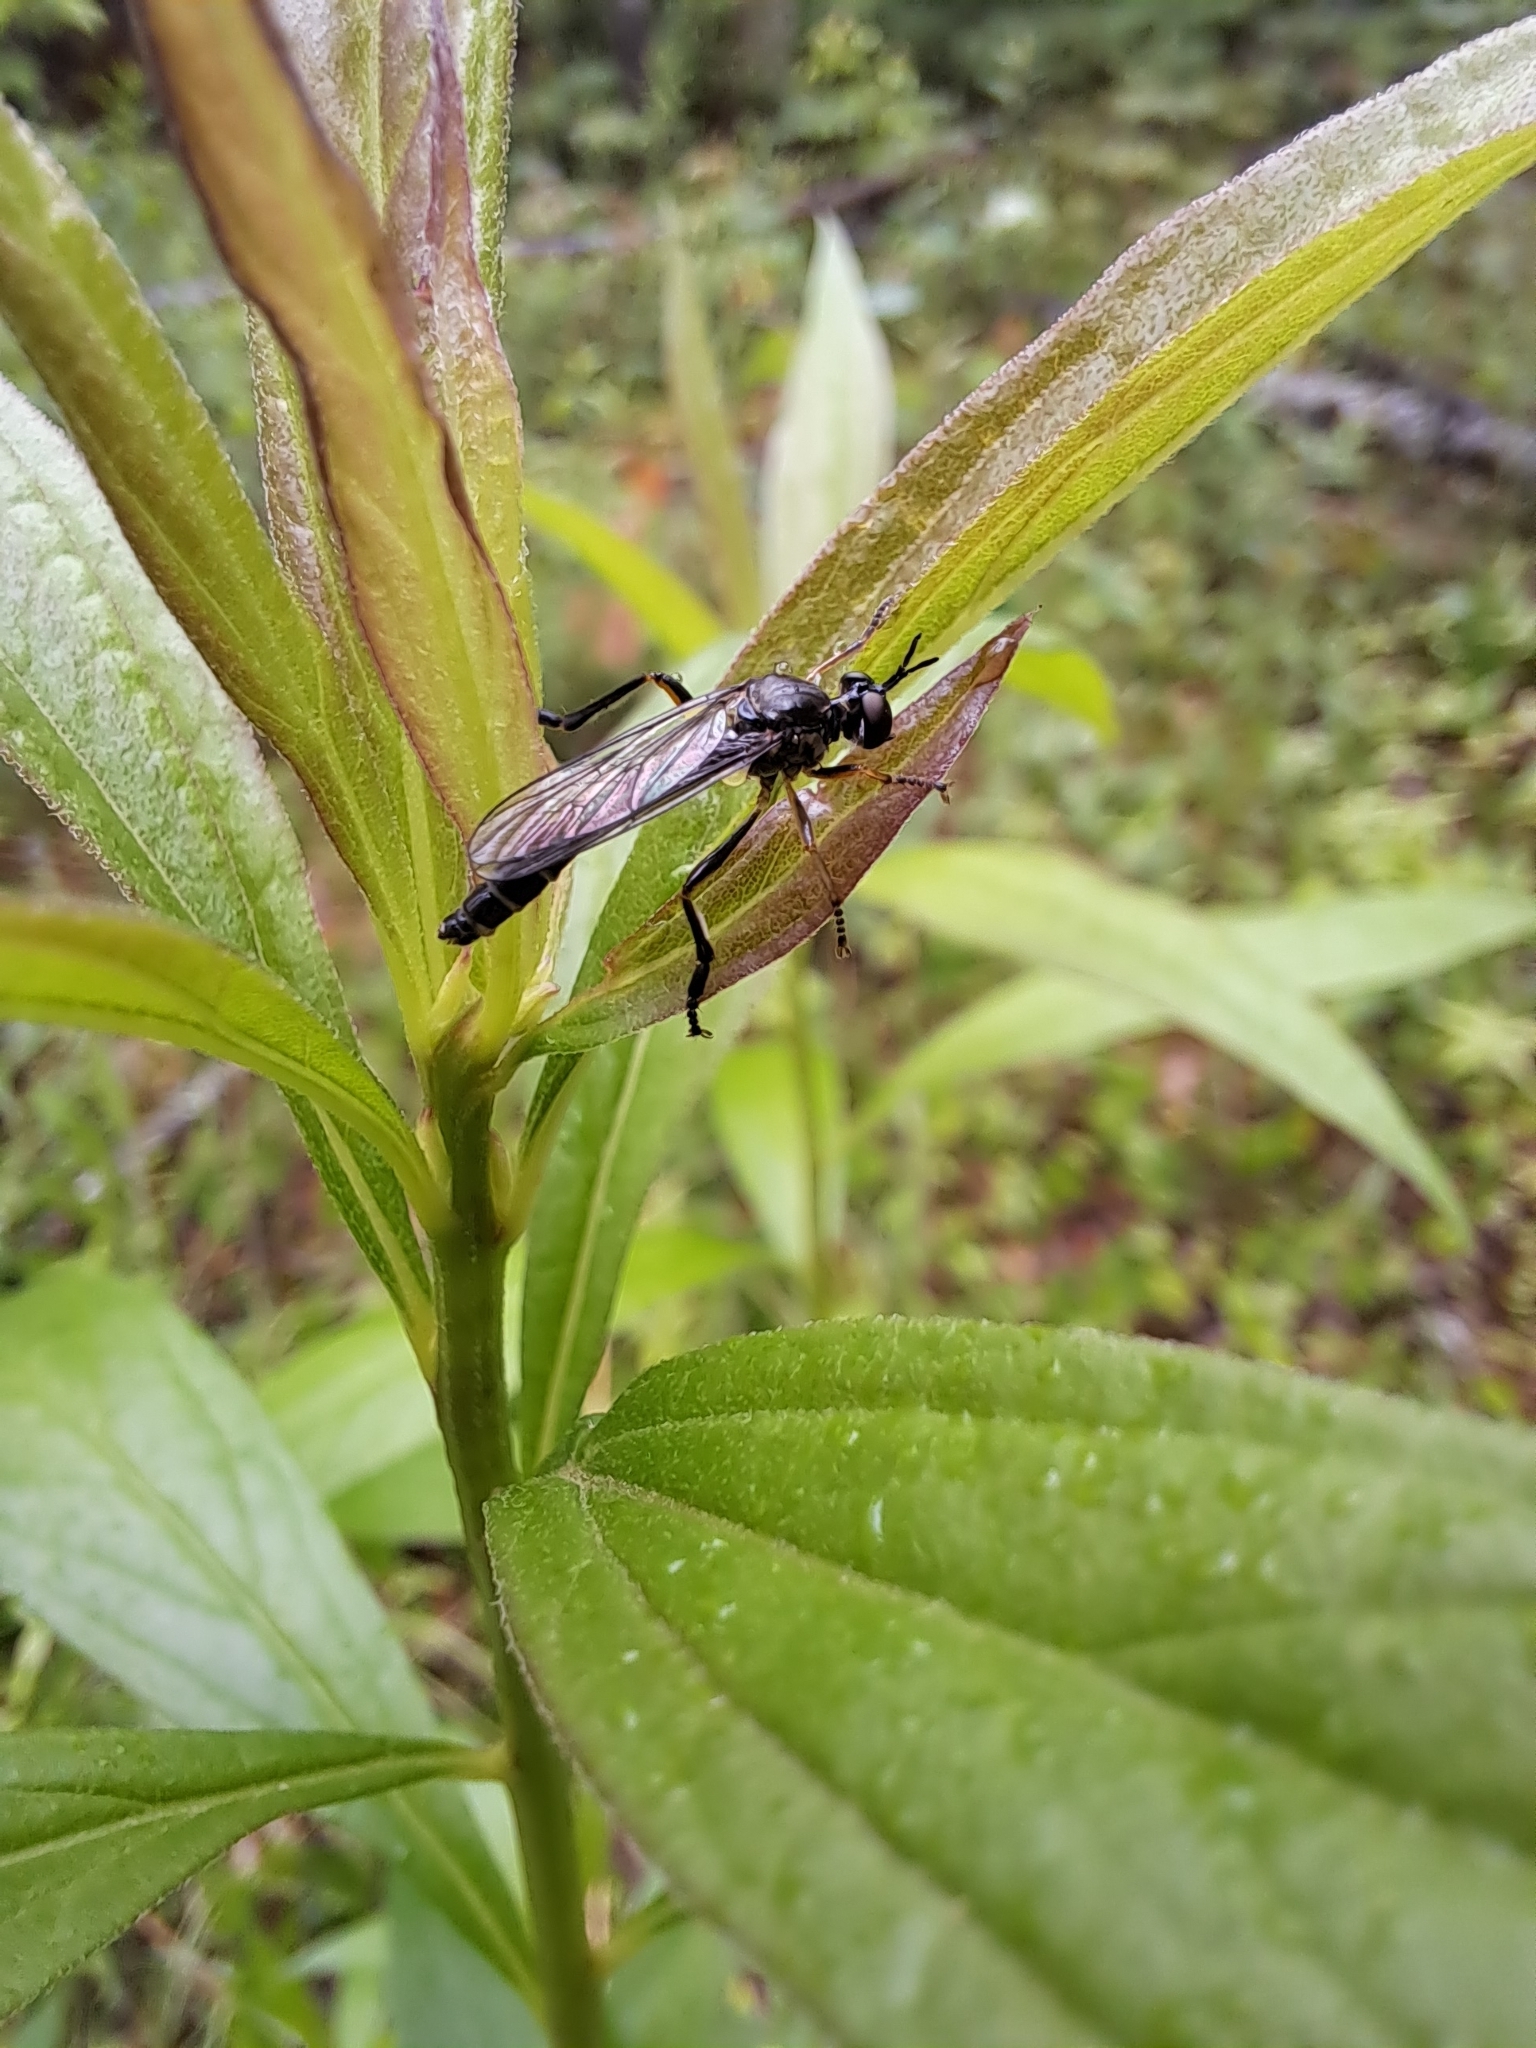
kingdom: Animalia
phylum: Arthropoda
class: Insecta
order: Diptera
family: Asilidae
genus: Dioctria
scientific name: Dioctria hyalipennis
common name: Stripe-legged robberfly
